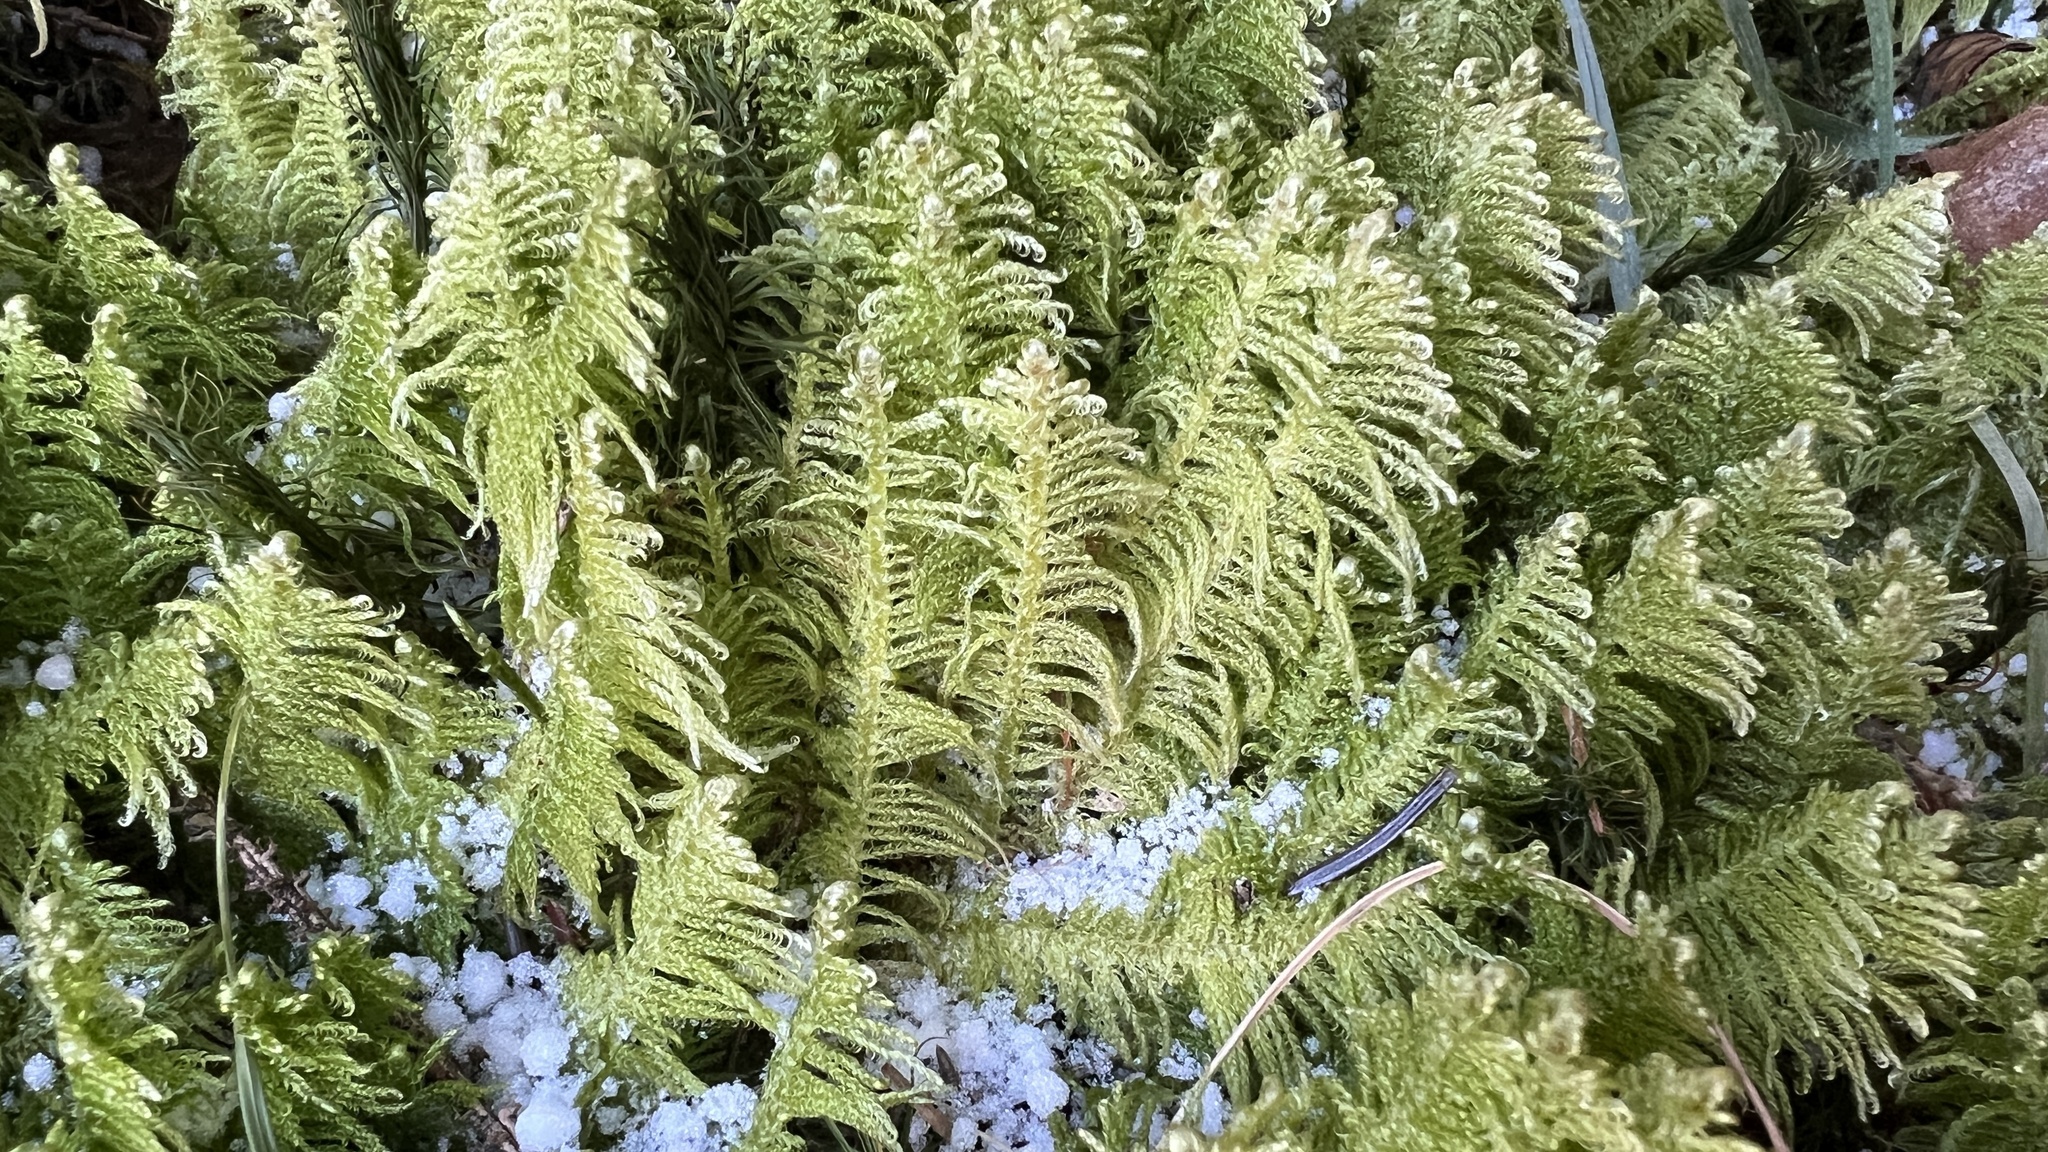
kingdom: Plantae
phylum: Bryophyta
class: Bryopsida
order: Hypnales
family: Pylaisiaceae
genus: Ptilium
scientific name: Ptilium crista-castrensis
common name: Knight's plume moss
